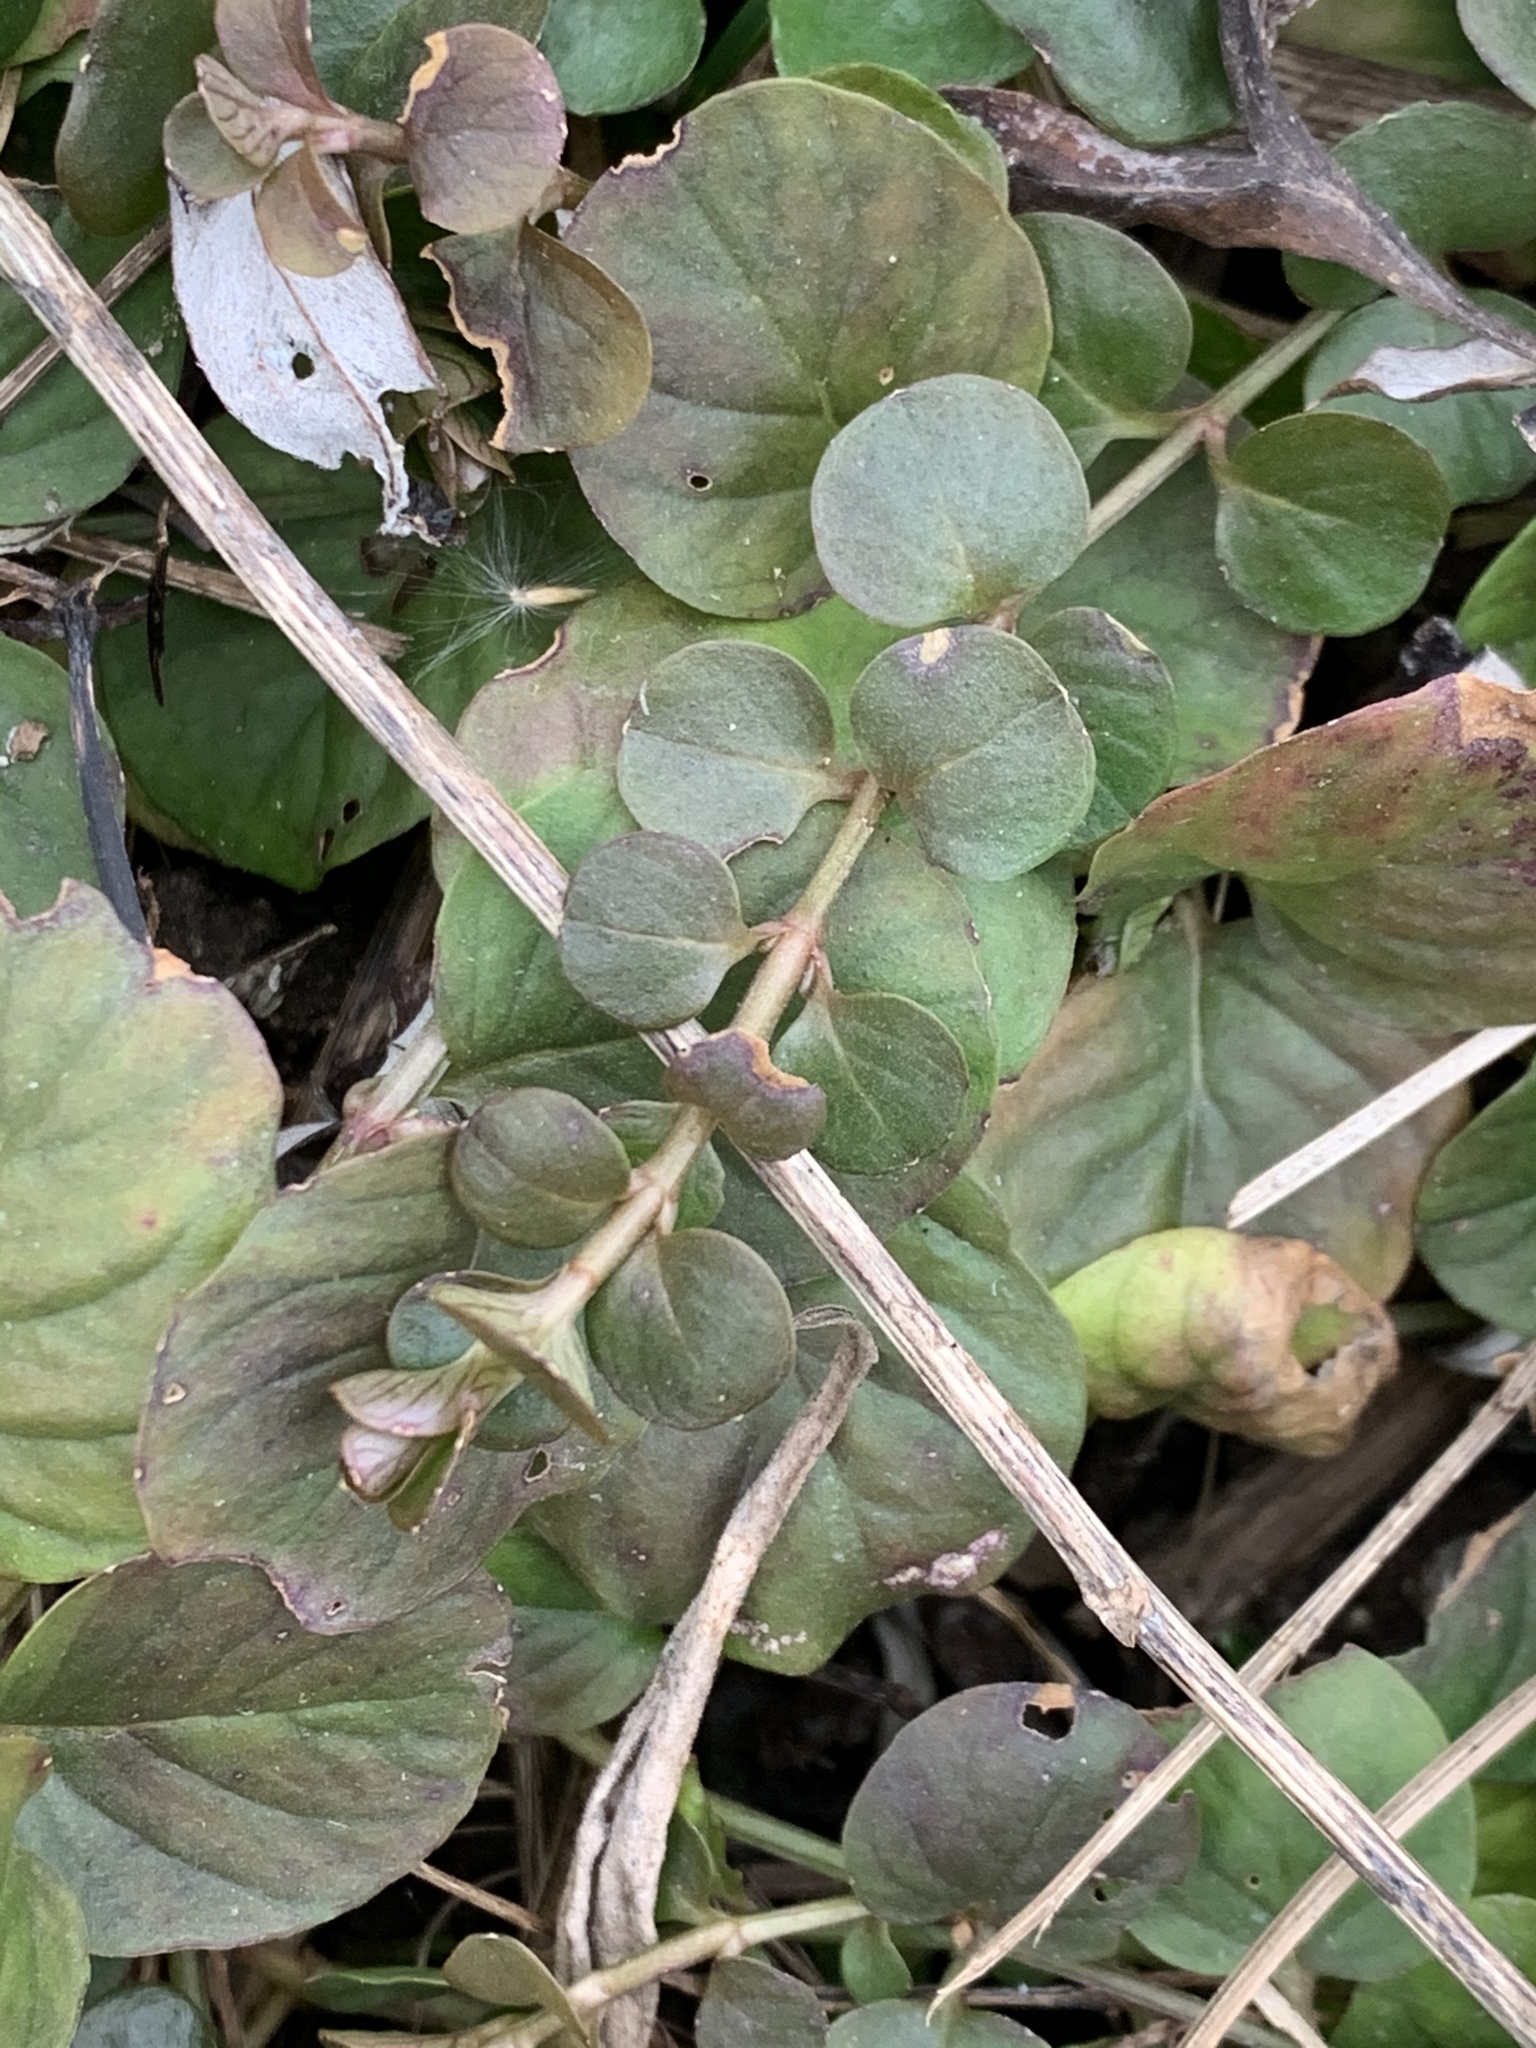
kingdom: Plantae
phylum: Tracheophyta
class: Magnoliopsida
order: Ericales
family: Primulaceae
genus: Lysimachia
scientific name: Lysimachia nummularia
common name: Moneywort
